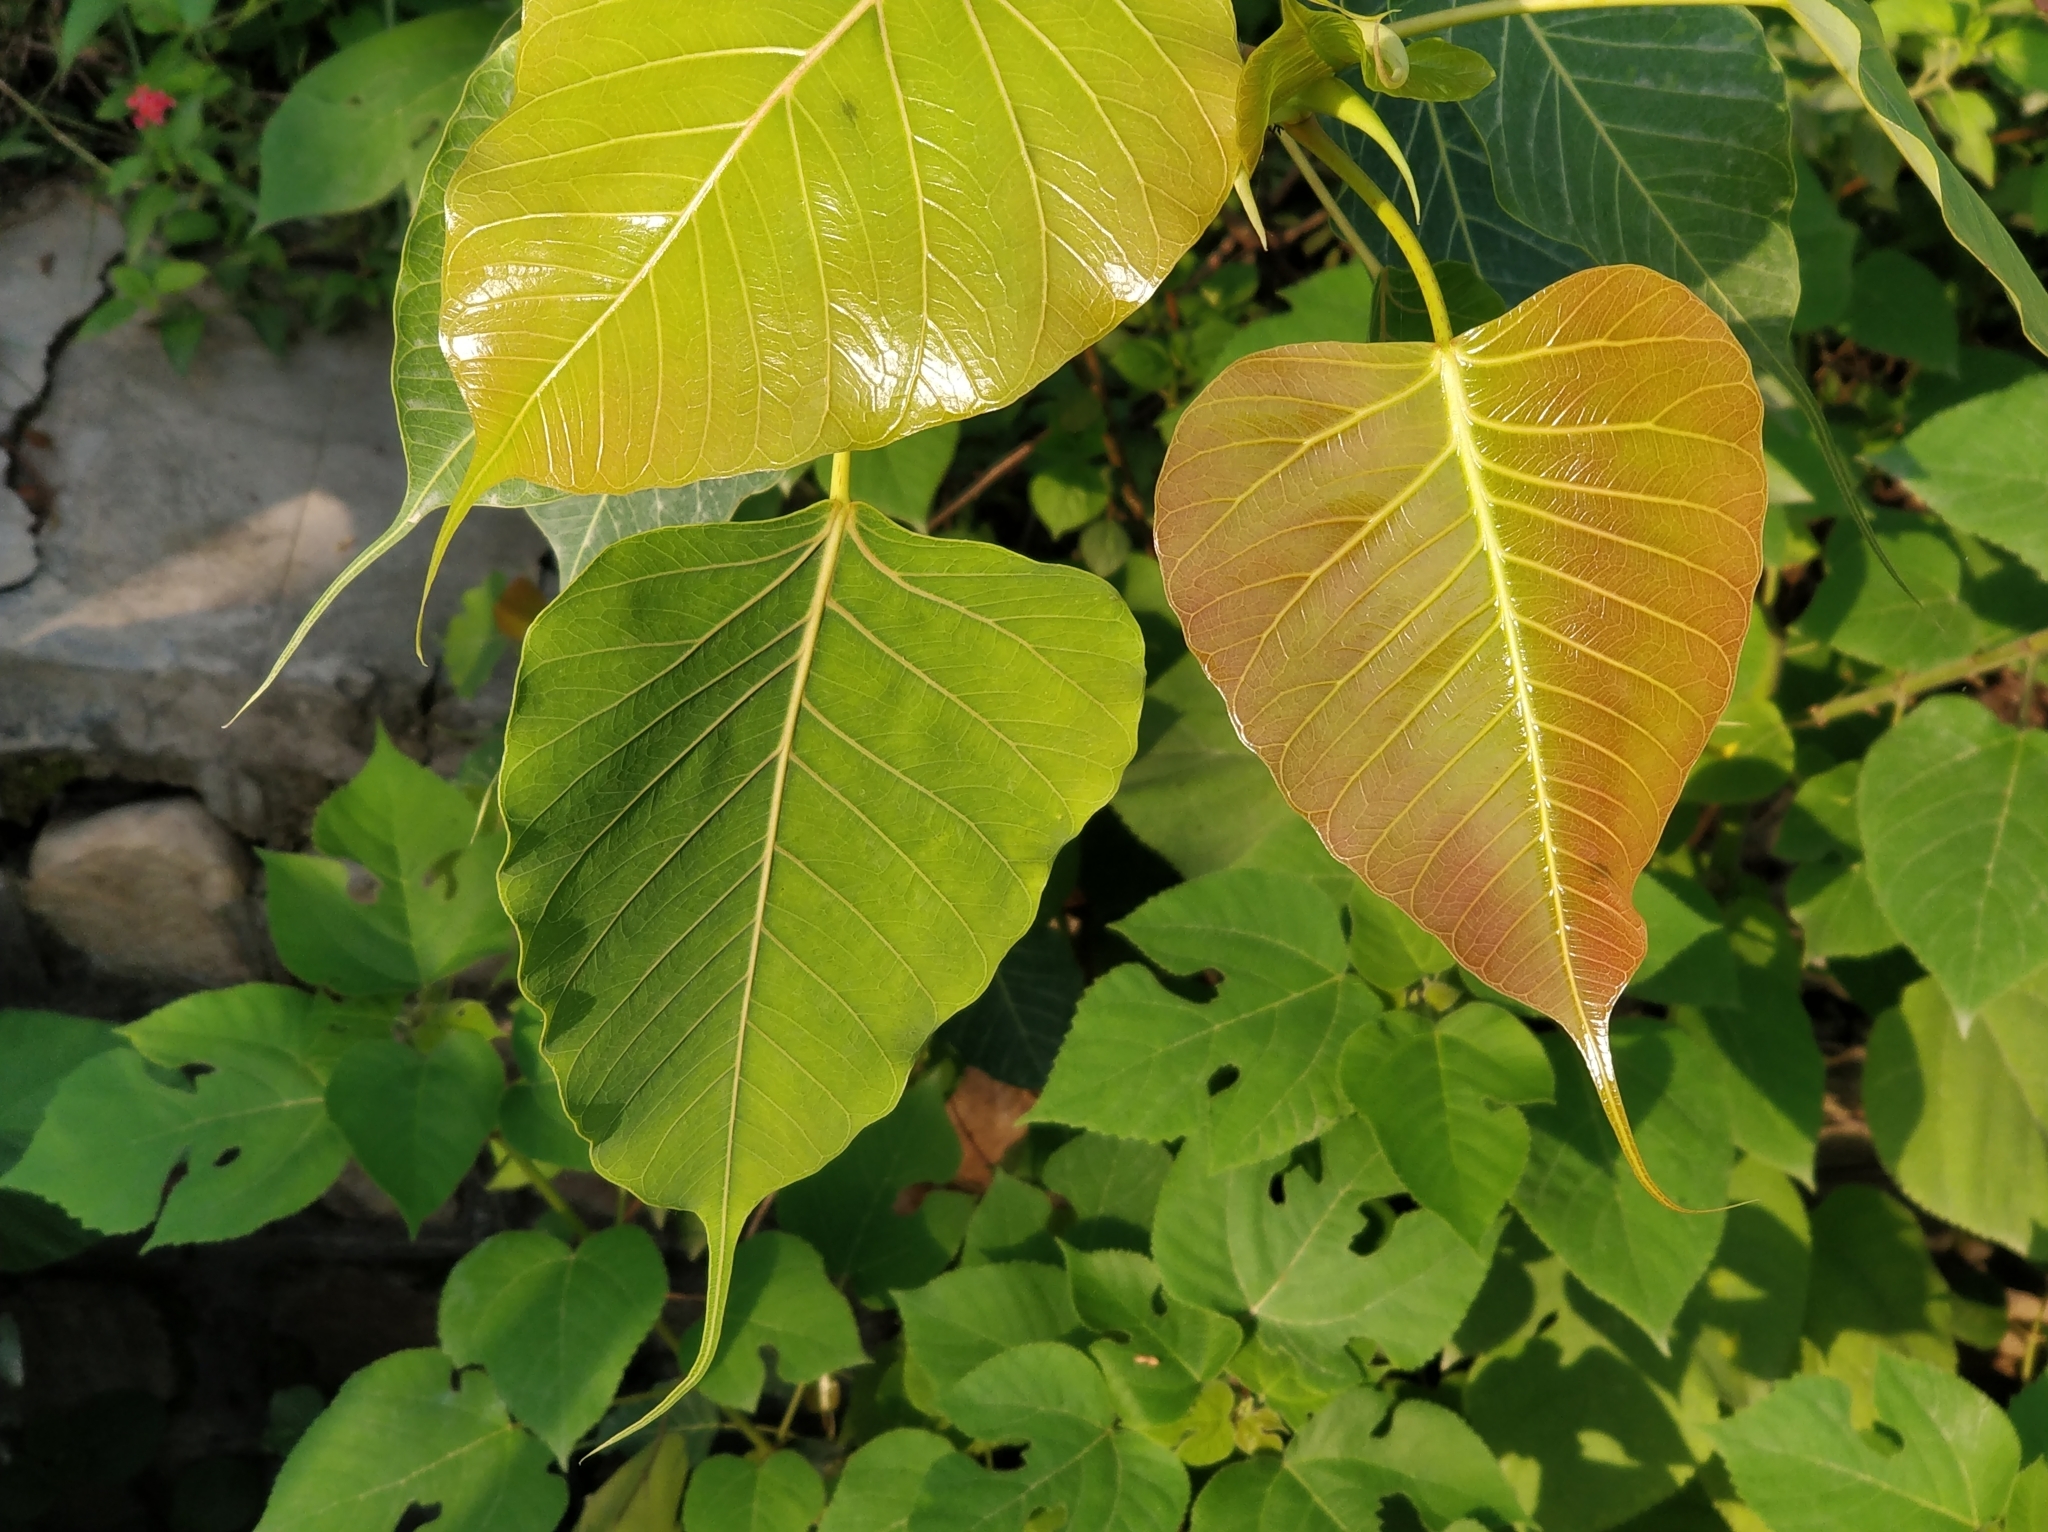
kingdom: Plantae
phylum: Tracheophyta
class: Magnoliopsida
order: Rosales
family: Moraceae
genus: Ficus
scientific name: Ficus religiosa
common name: Bodhi tree
